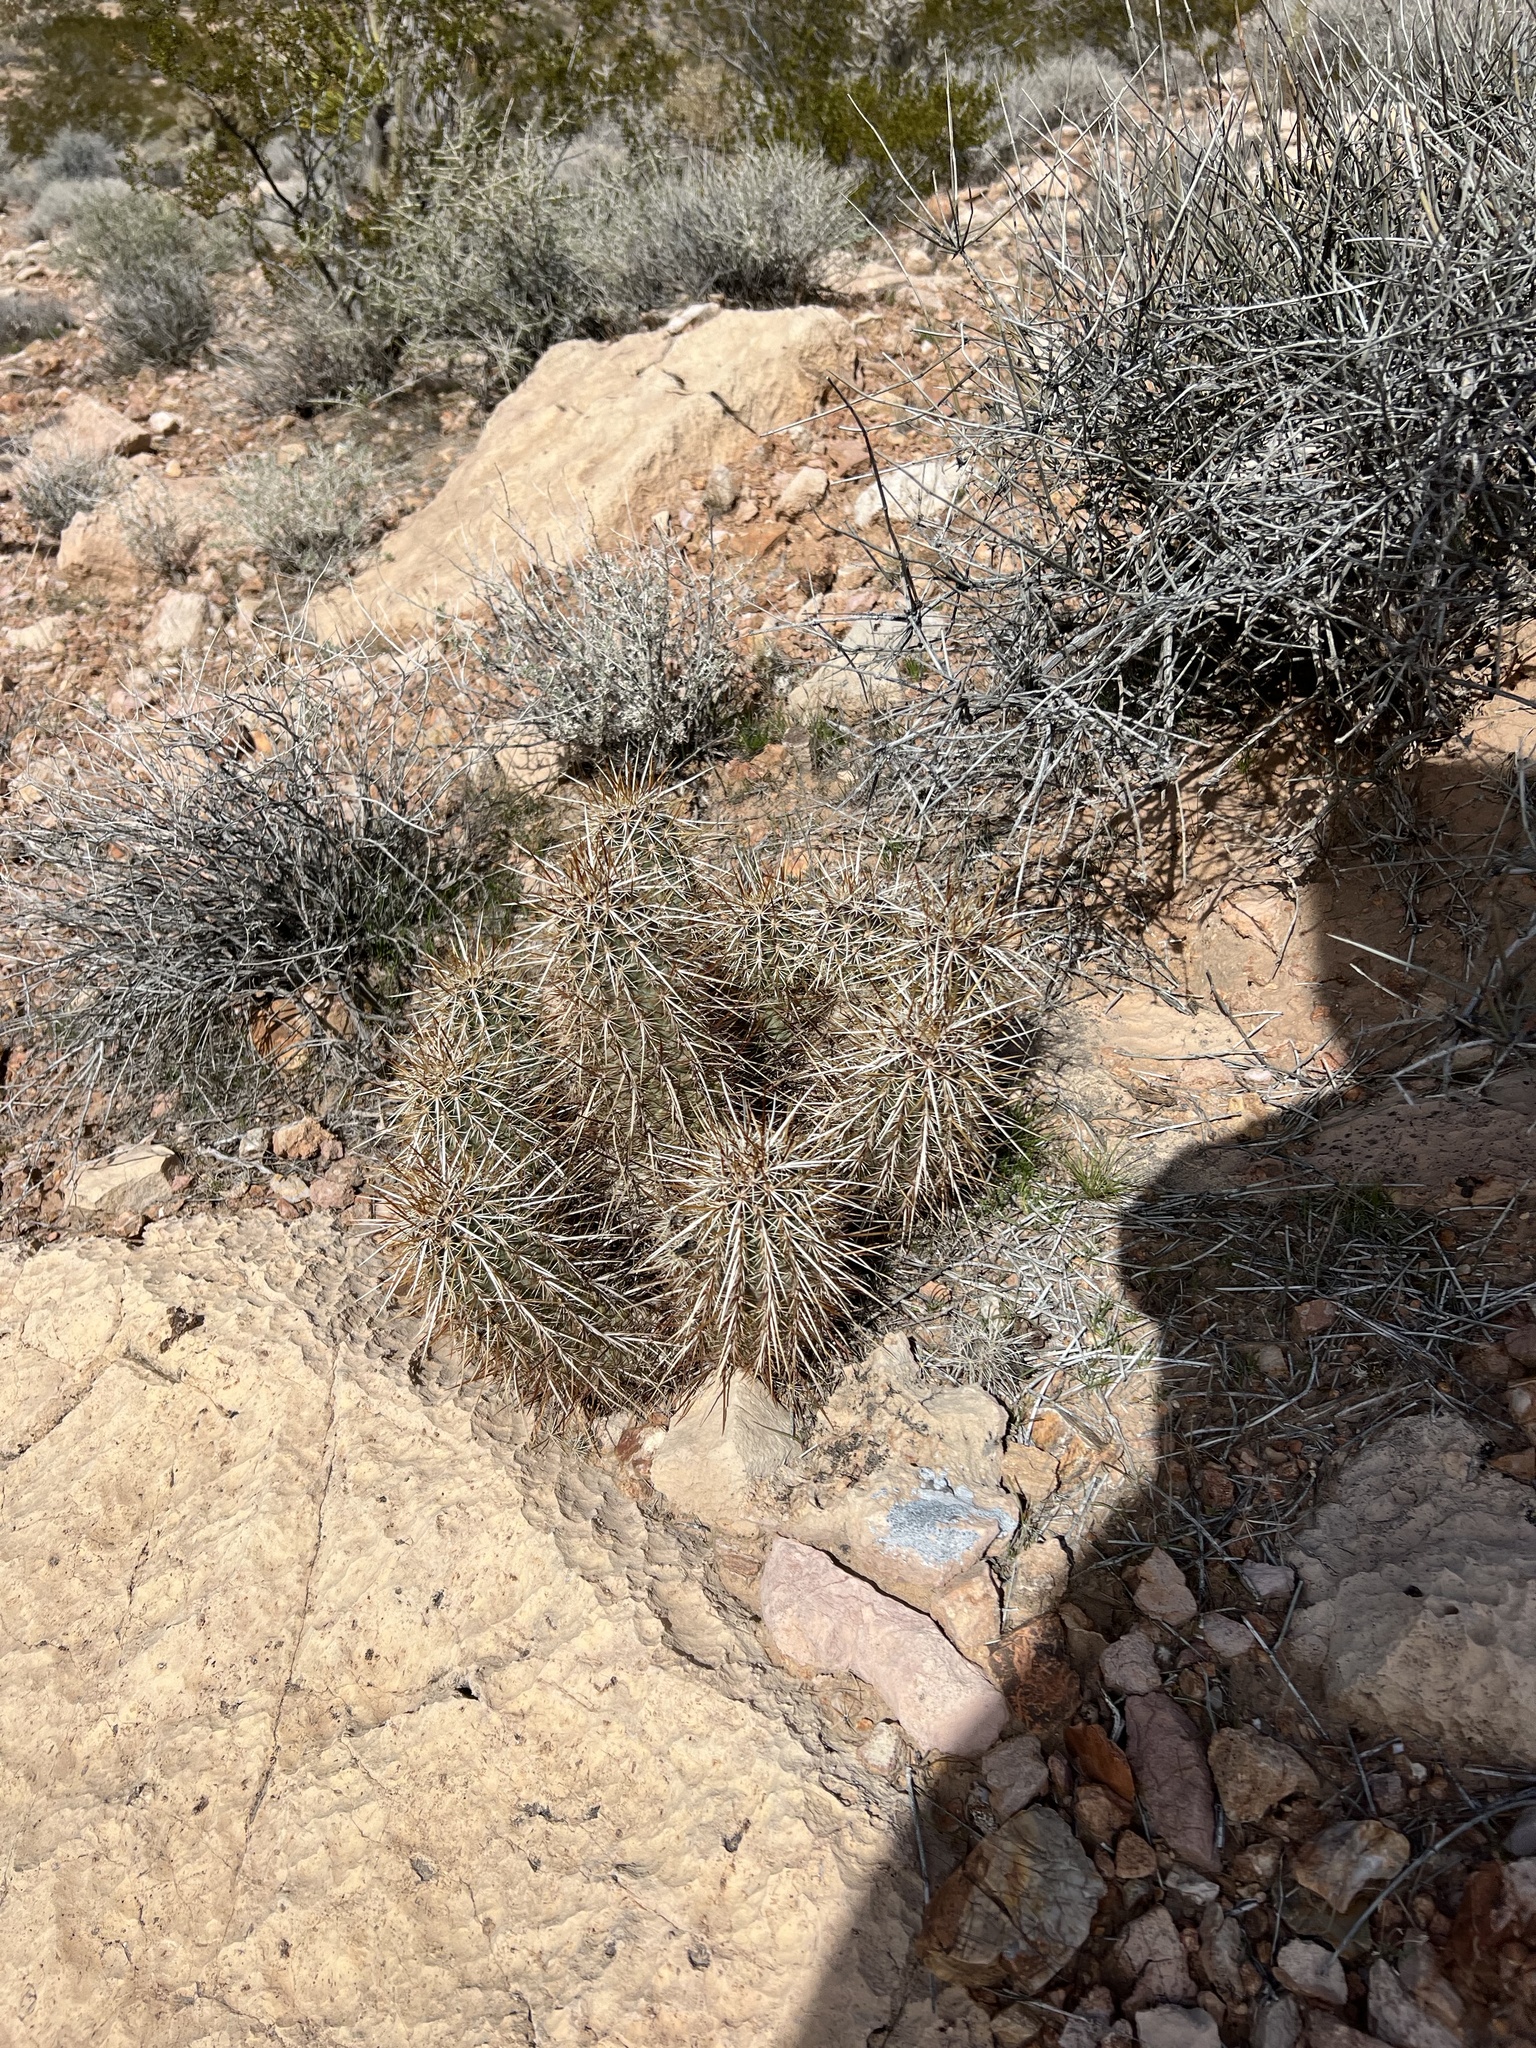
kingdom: Plantae
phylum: Tracheophyta
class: Magnoliopsida
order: Caryophyllales
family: Cactaceae
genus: Echinocereus
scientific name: Echinocereus engelmannii
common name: Engelmann's hedgehog cactus
